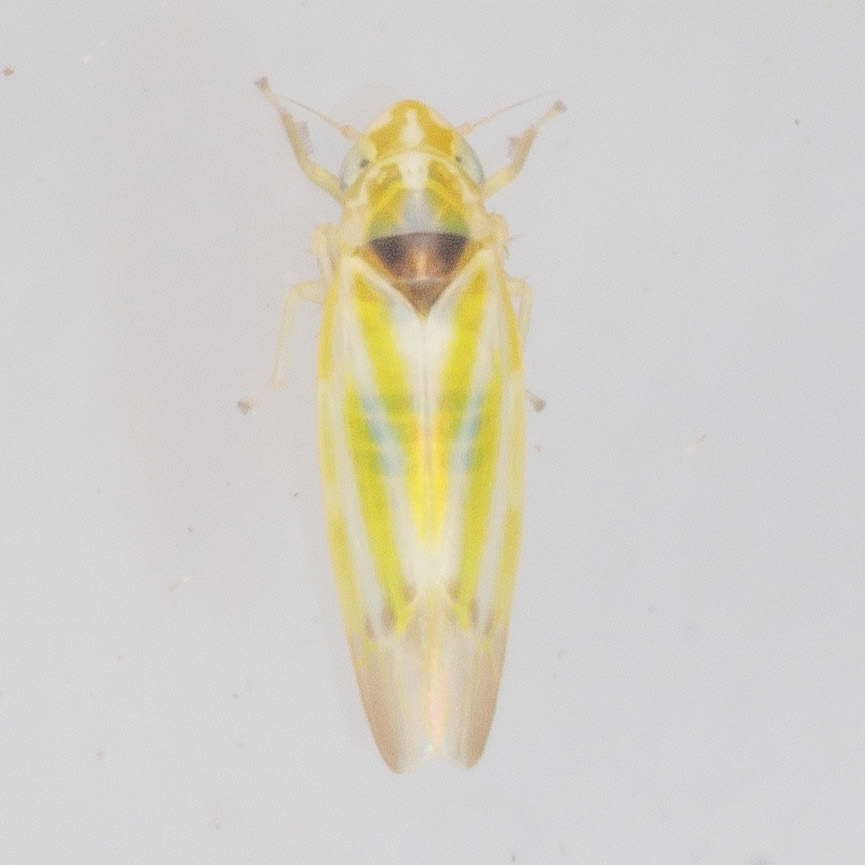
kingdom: Animalia
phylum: Arthropoda
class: Insecta
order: Hemiptera
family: Cicadellidae
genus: Erythridula
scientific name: Erythridula penenoeva
